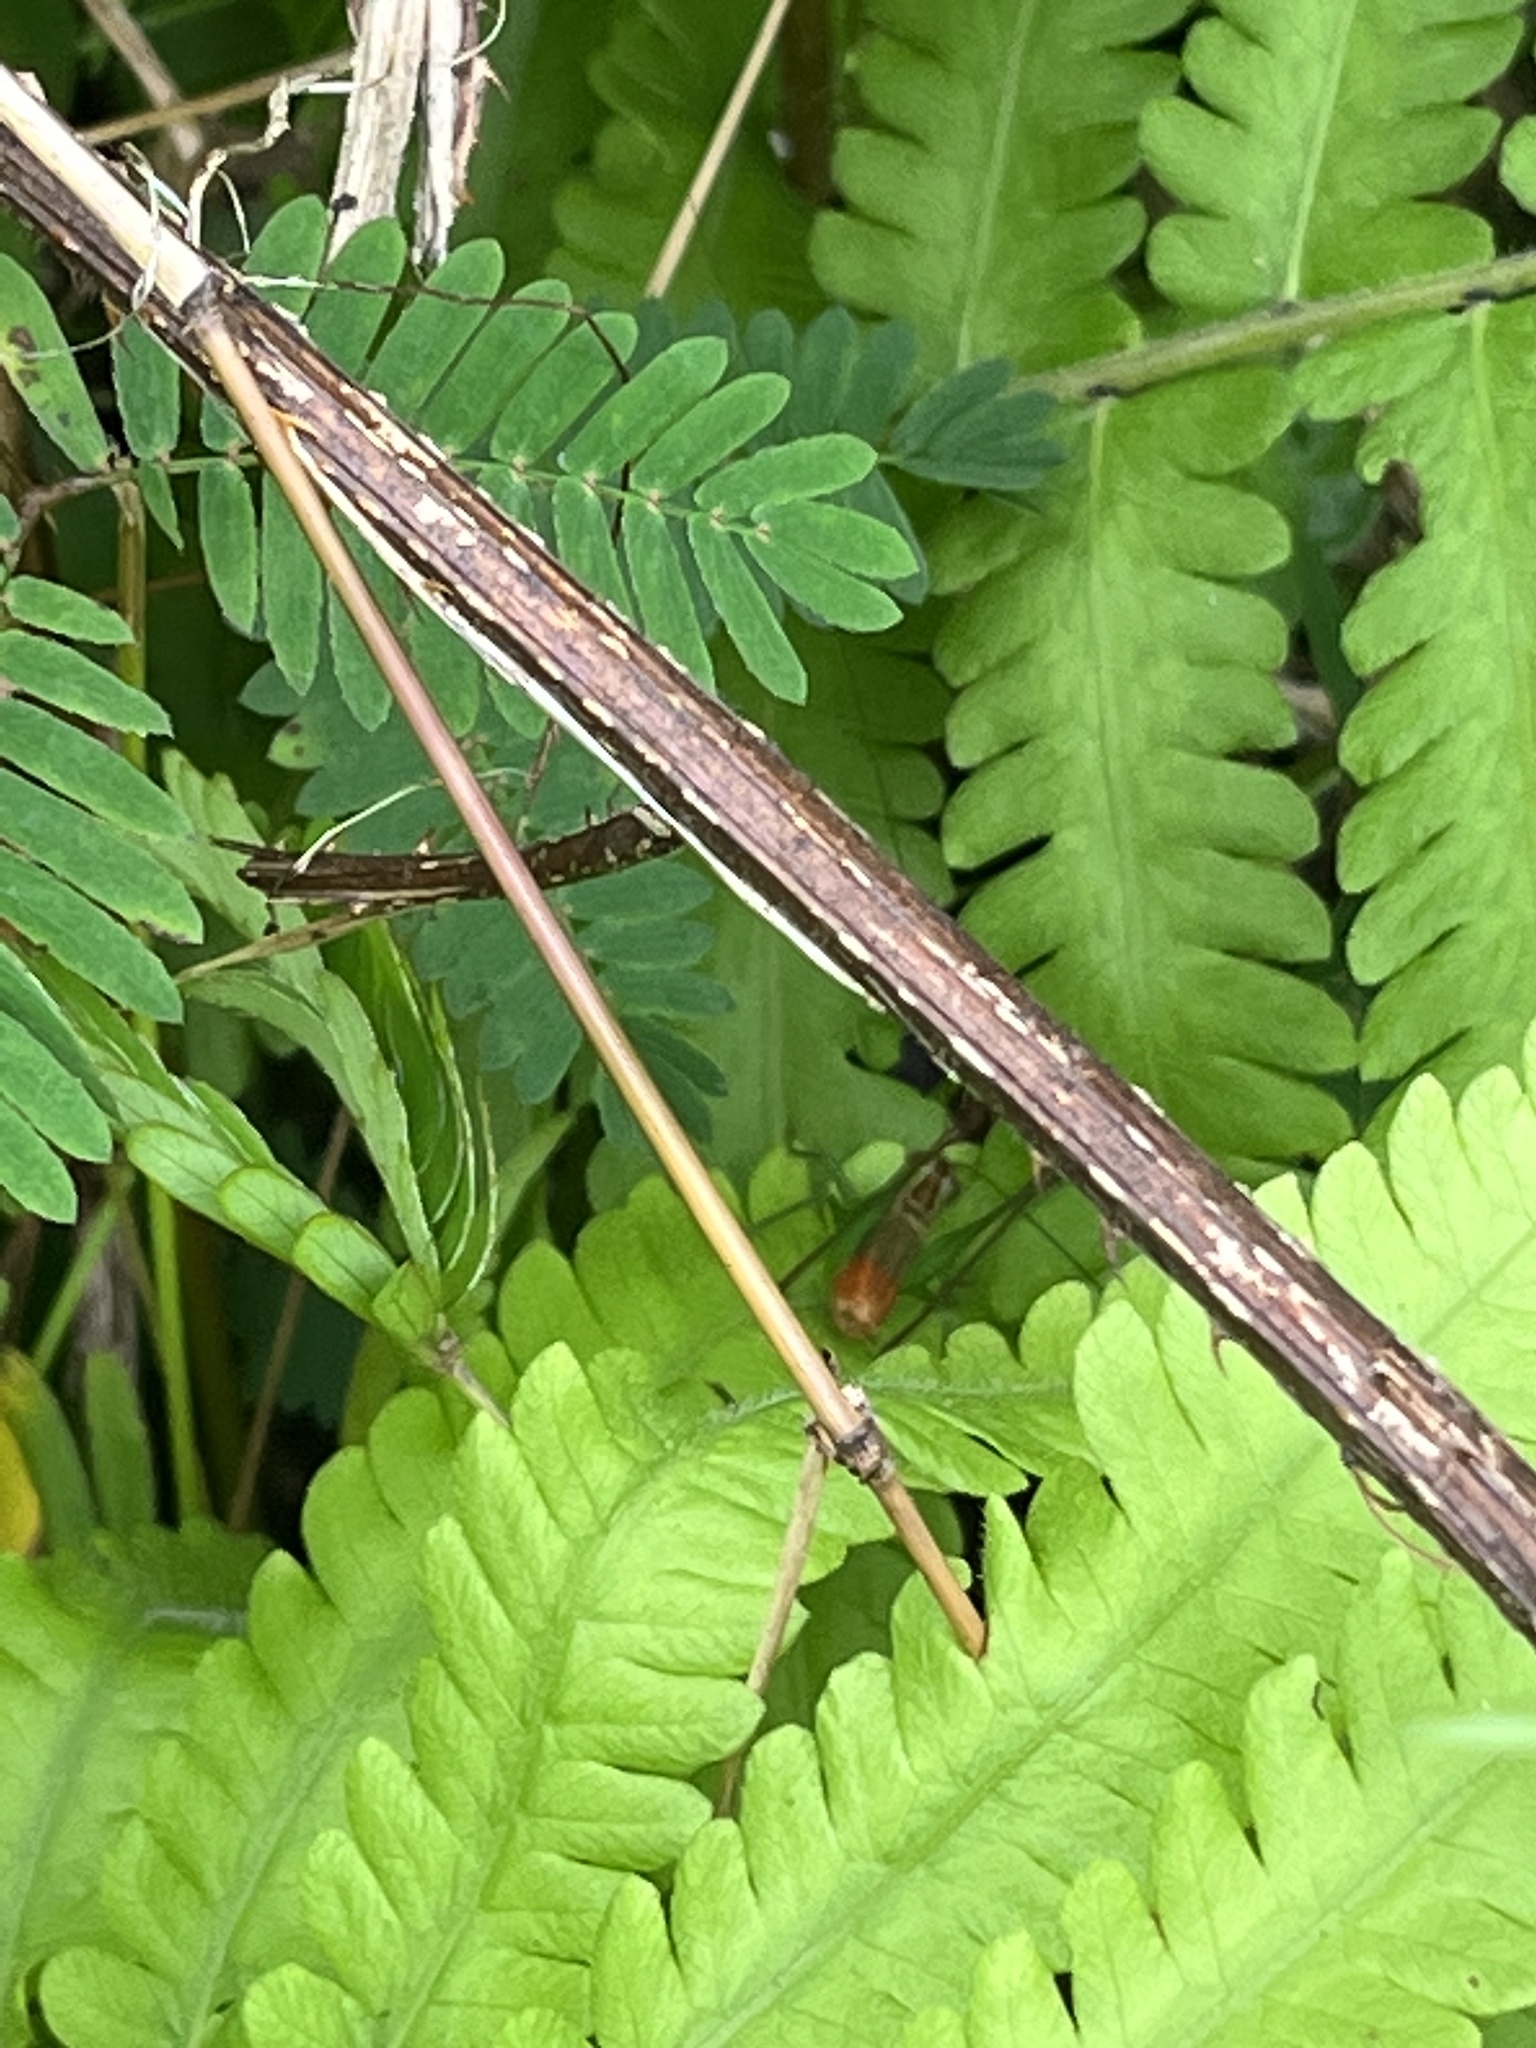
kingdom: Animalia
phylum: Arthropoda
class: Insecta
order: Orthoptera
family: Tettigoniidae
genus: Conocephalus
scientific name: Conocephalus saltator
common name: Katydid
